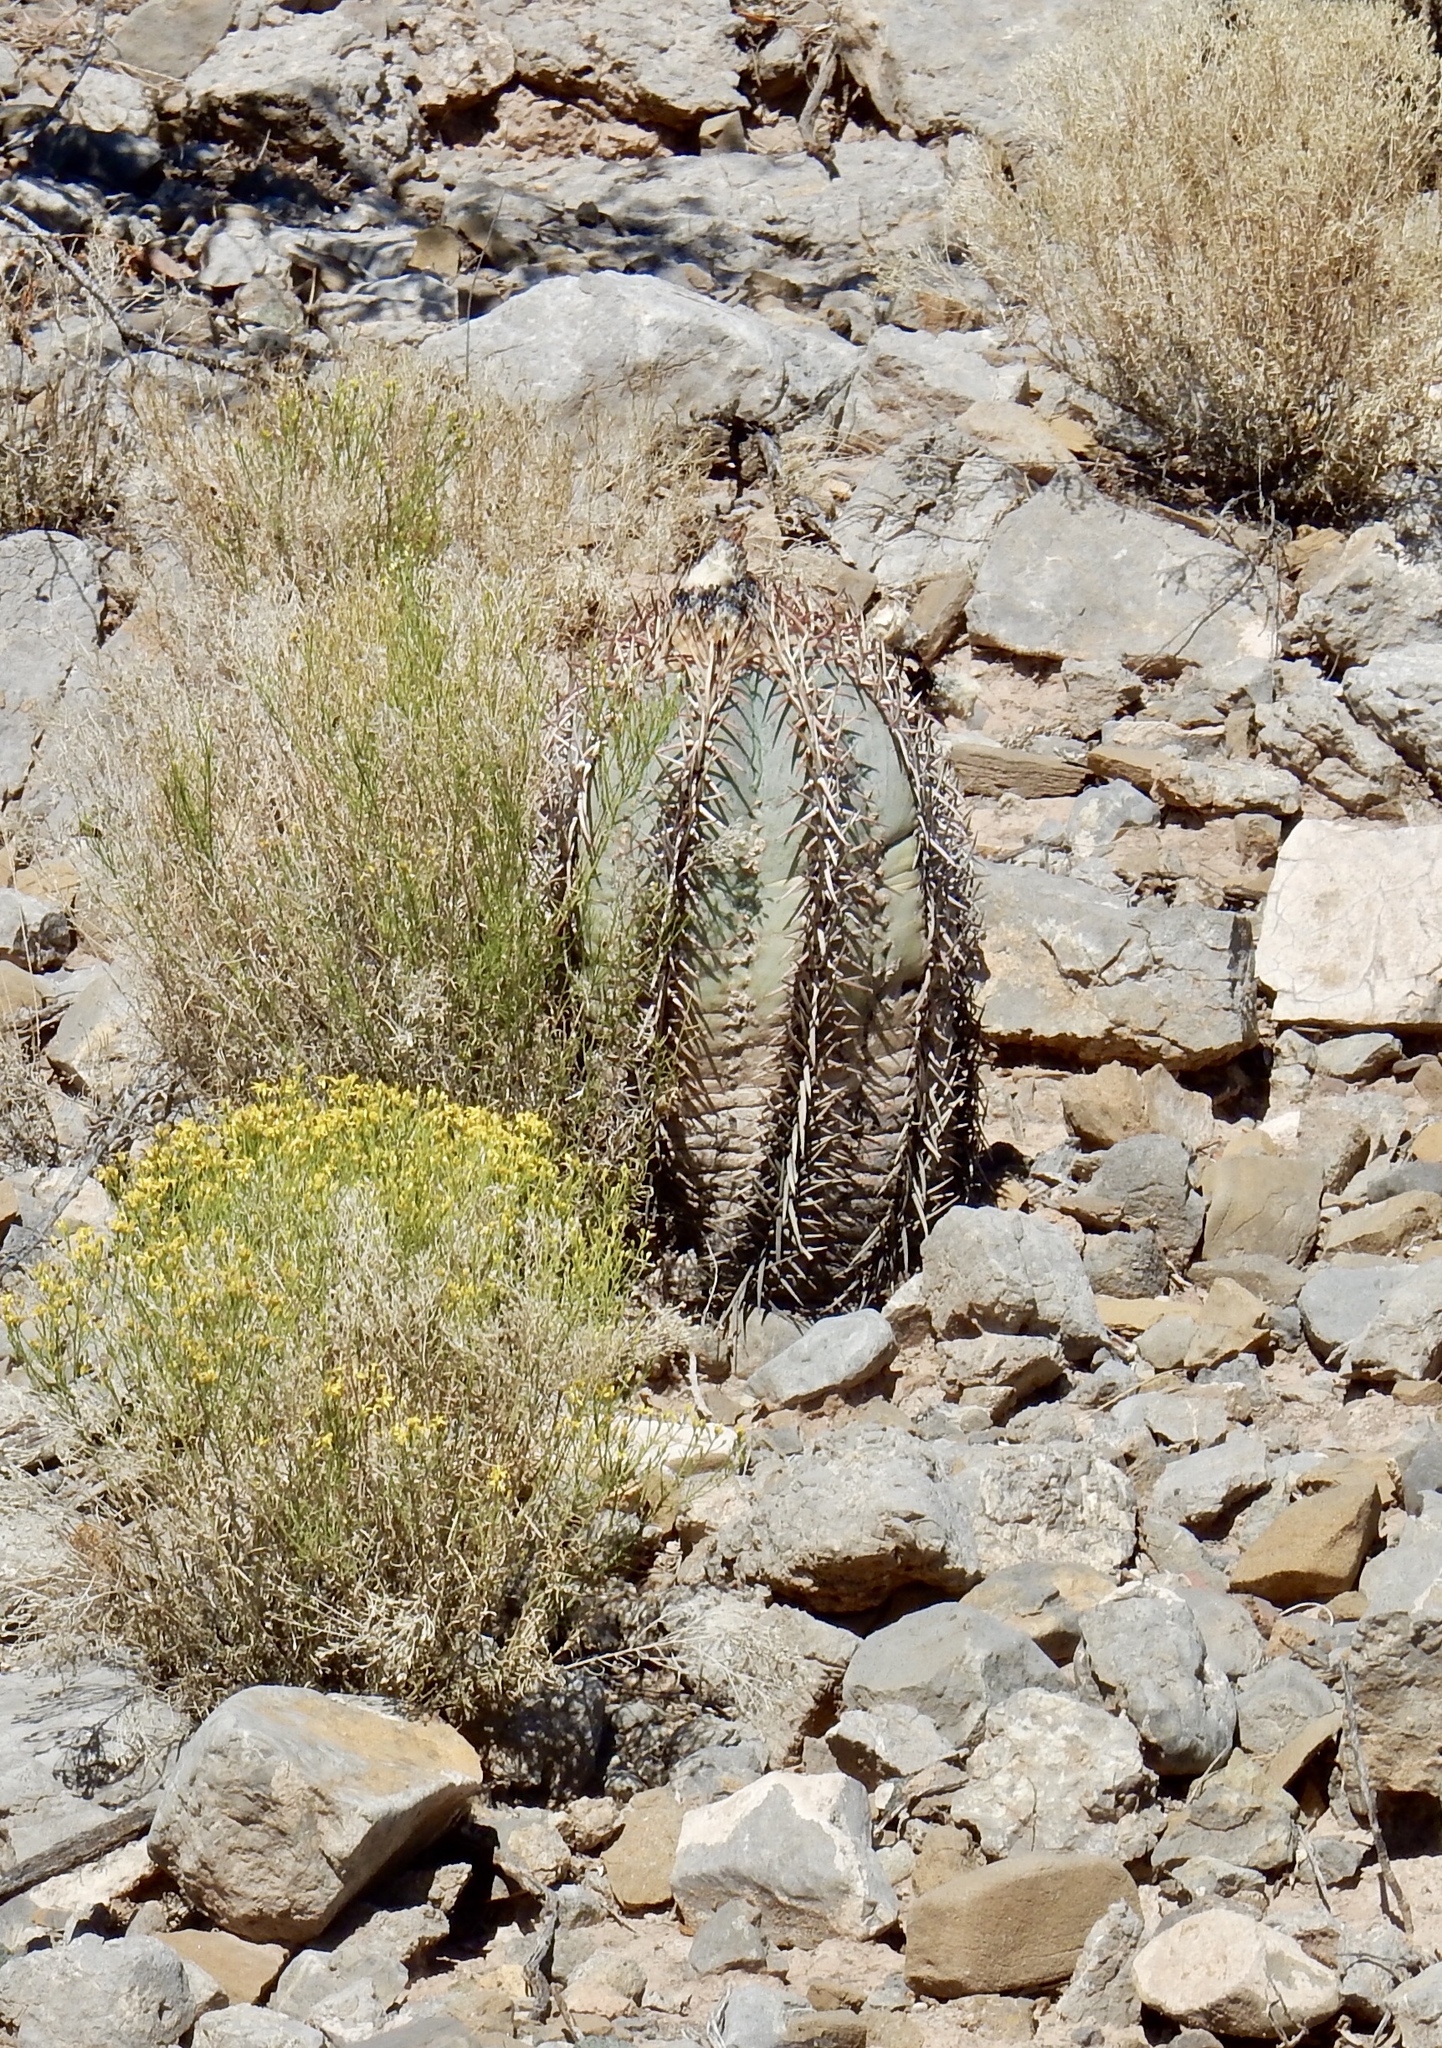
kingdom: Plantae
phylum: Tracheophyta
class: Magnoliopsida
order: Caryophyllales
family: Cactaceae
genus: Echinocactus
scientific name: Echinocactus horizonthalonius
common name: Devilshead
